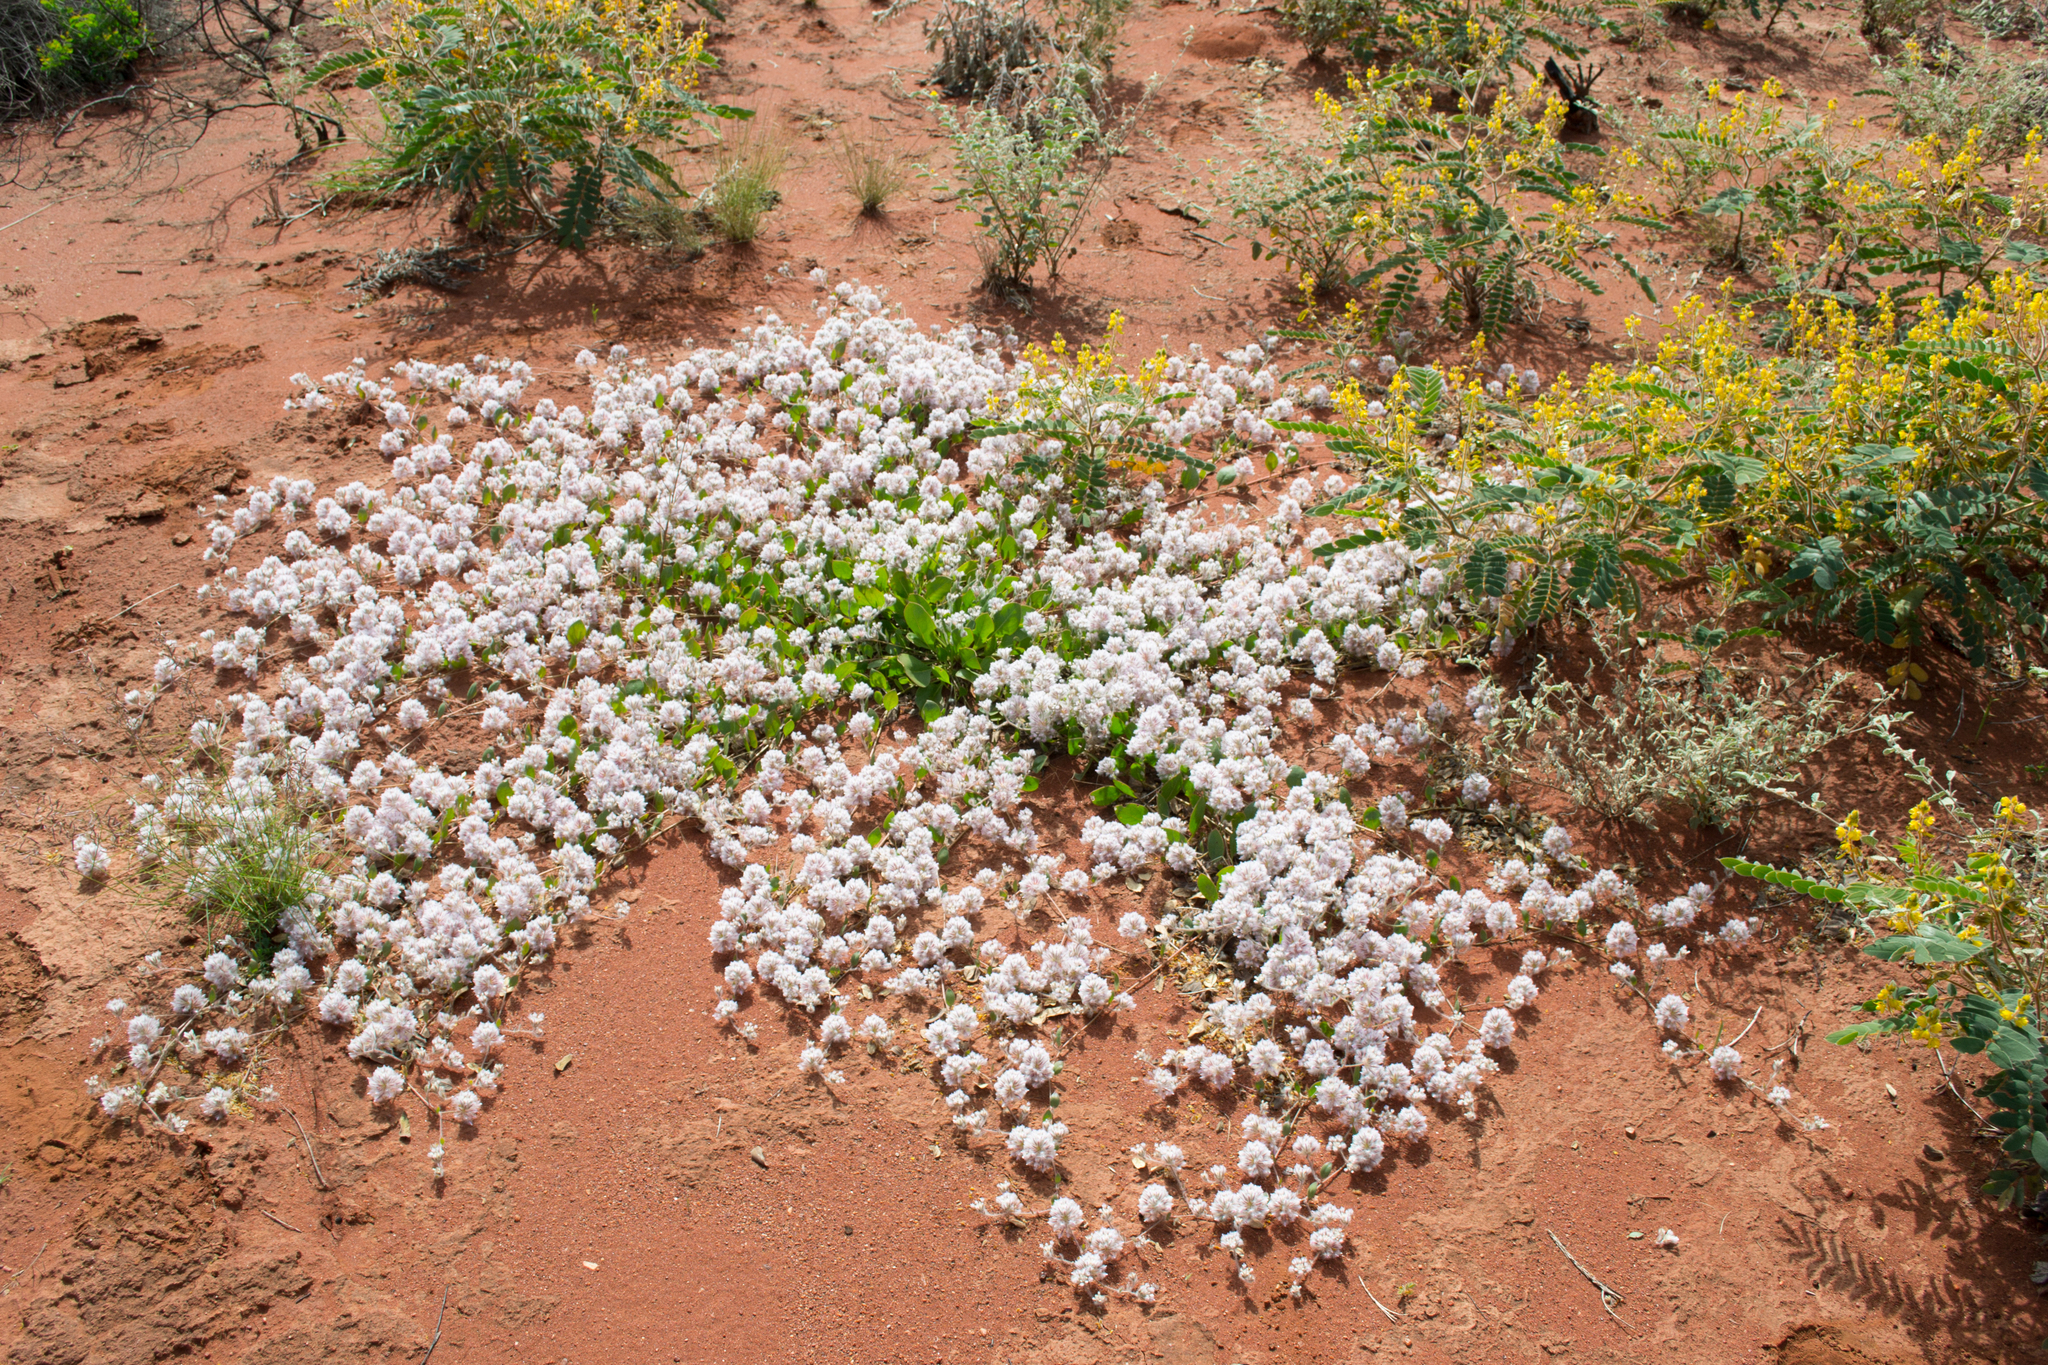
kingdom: Plantae
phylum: Tracheophyta
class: Magnoliopsida
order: Caryophyllales
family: Amaranthaceae
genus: Ptilotus
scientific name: Ptilotus axillaris
